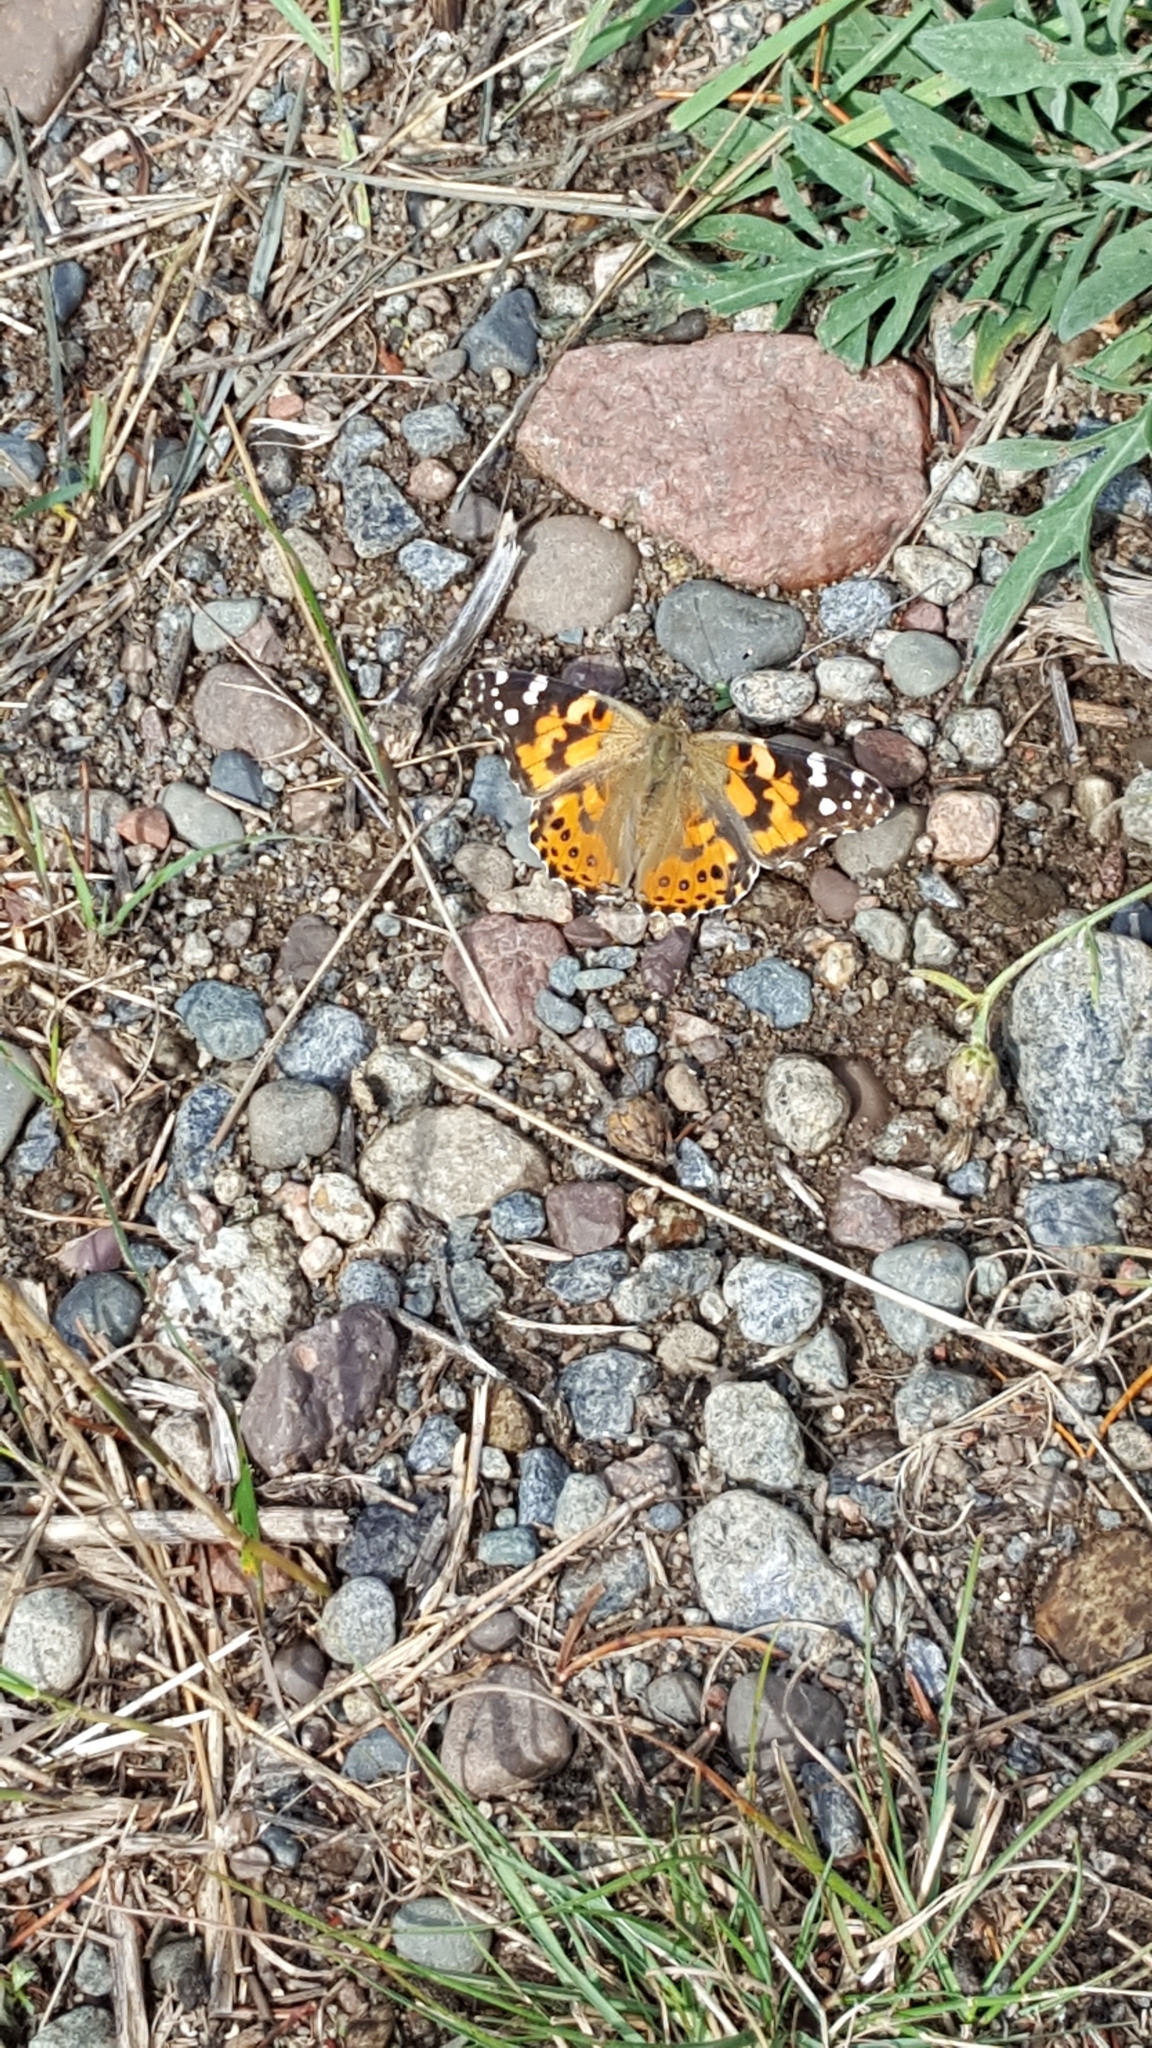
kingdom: Animalia
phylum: Arthropoda
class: Insecta
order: Lepidoptera
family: Nymphalidae
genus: Vanessa
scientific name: Vanessa cardui
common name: Painted lady
